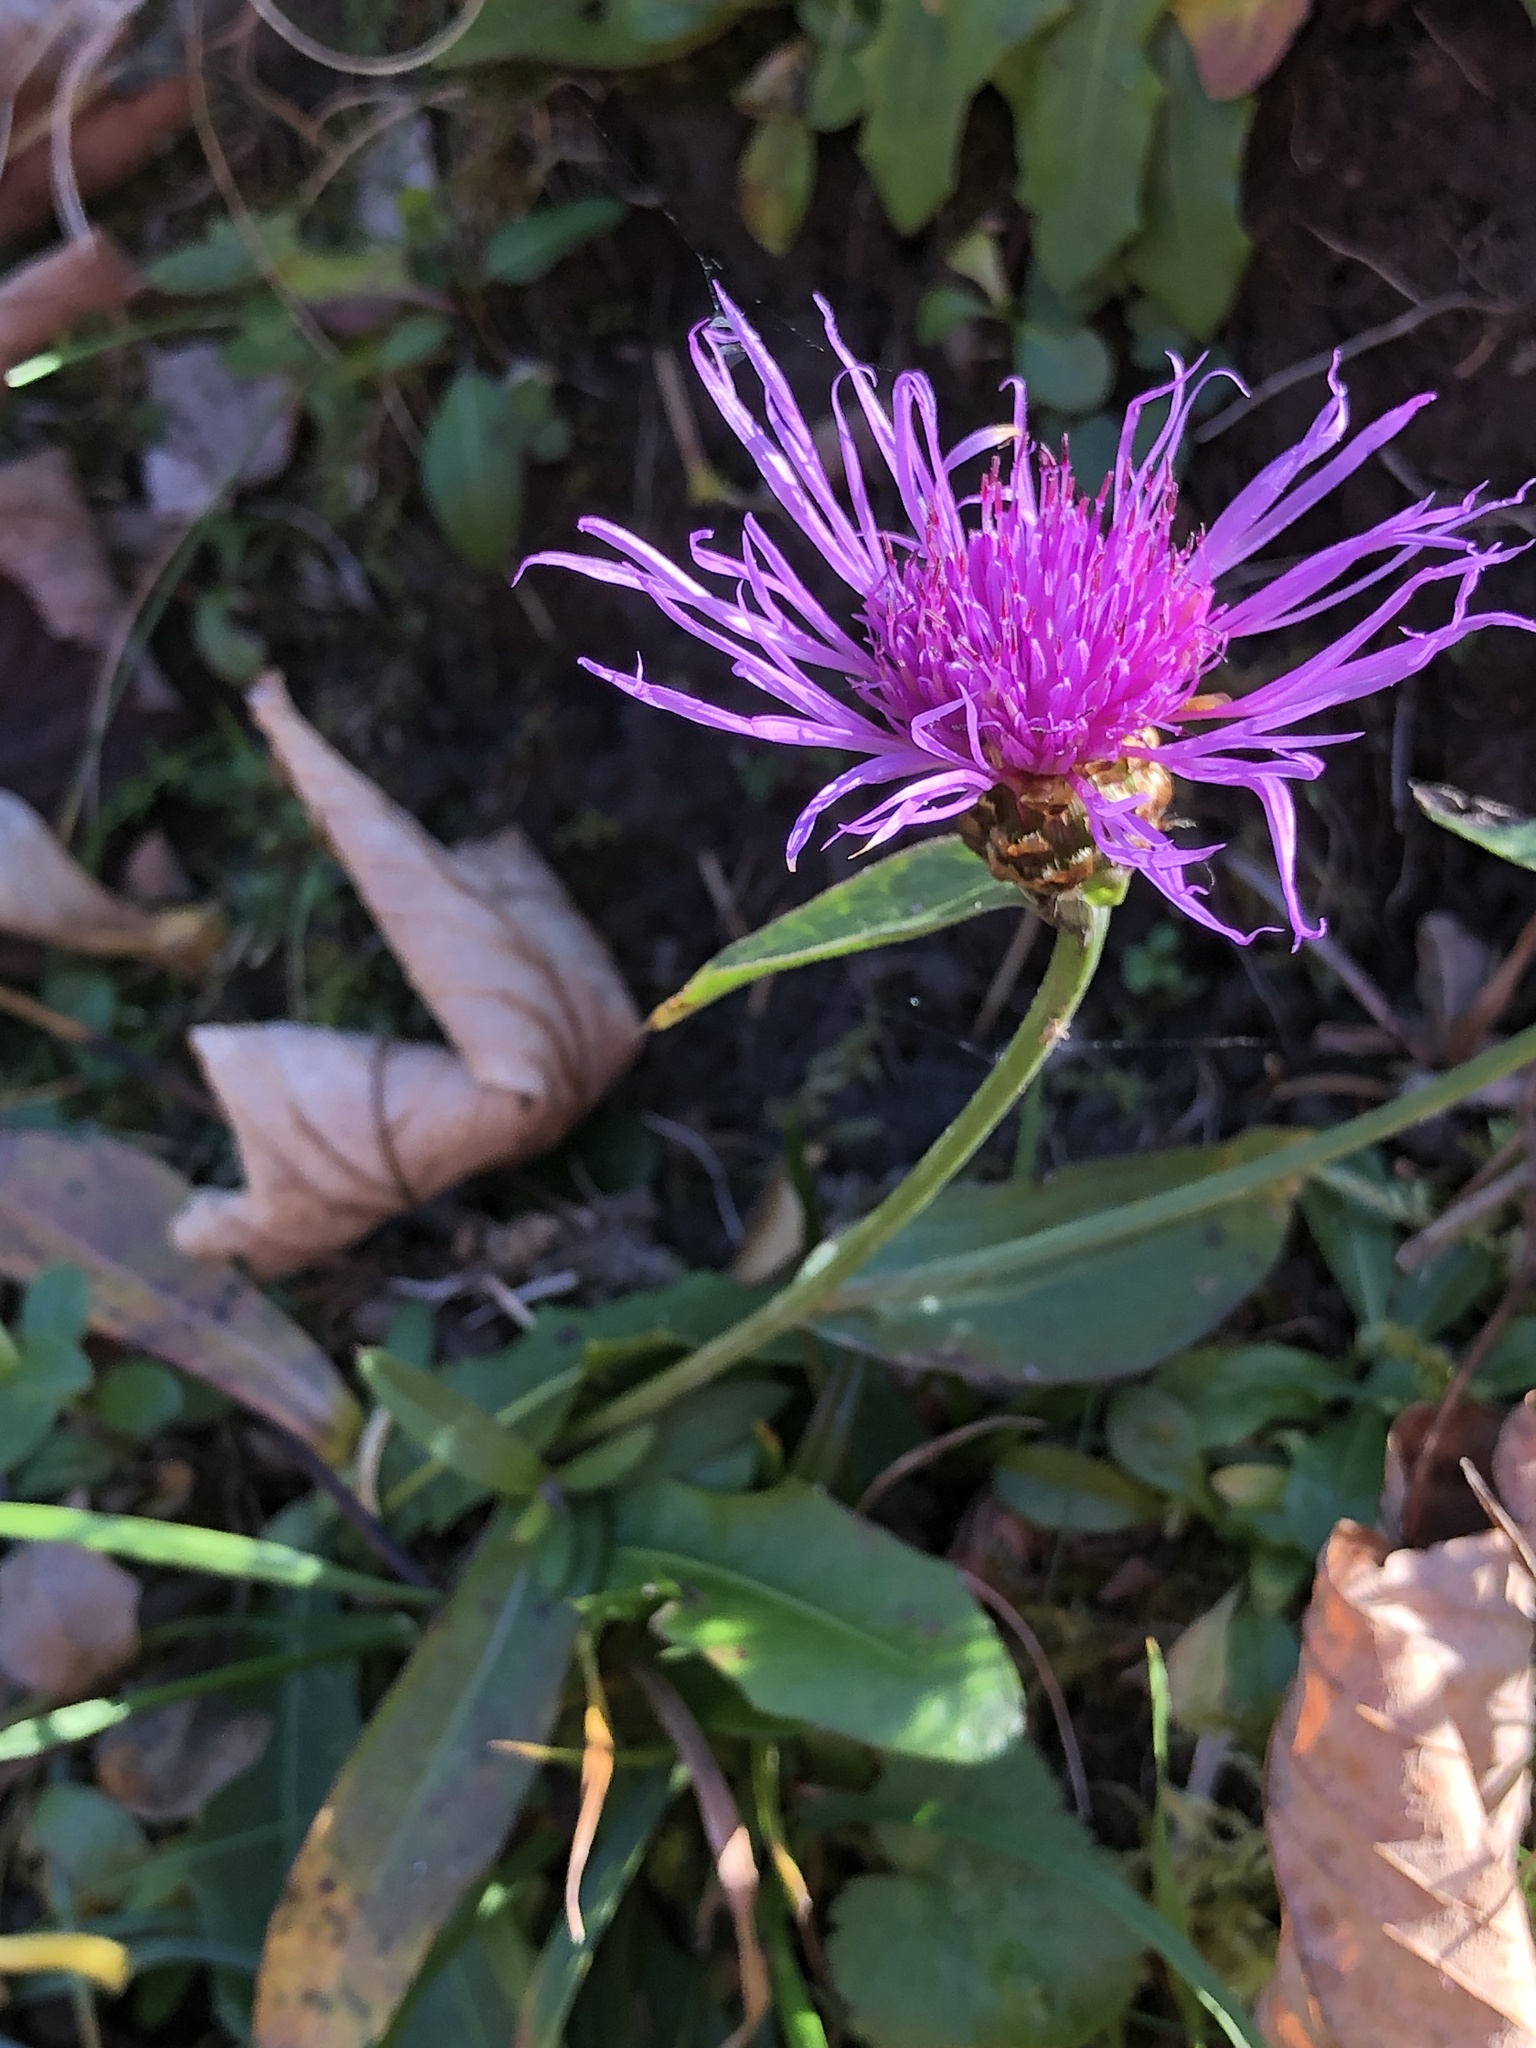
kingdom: Plantae
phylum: Tracheophyta
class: Magnoliopsida
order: Asterales
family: Asteraceae
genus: Centaurea
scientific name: Centaurea jacea
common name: Brown knapweed
